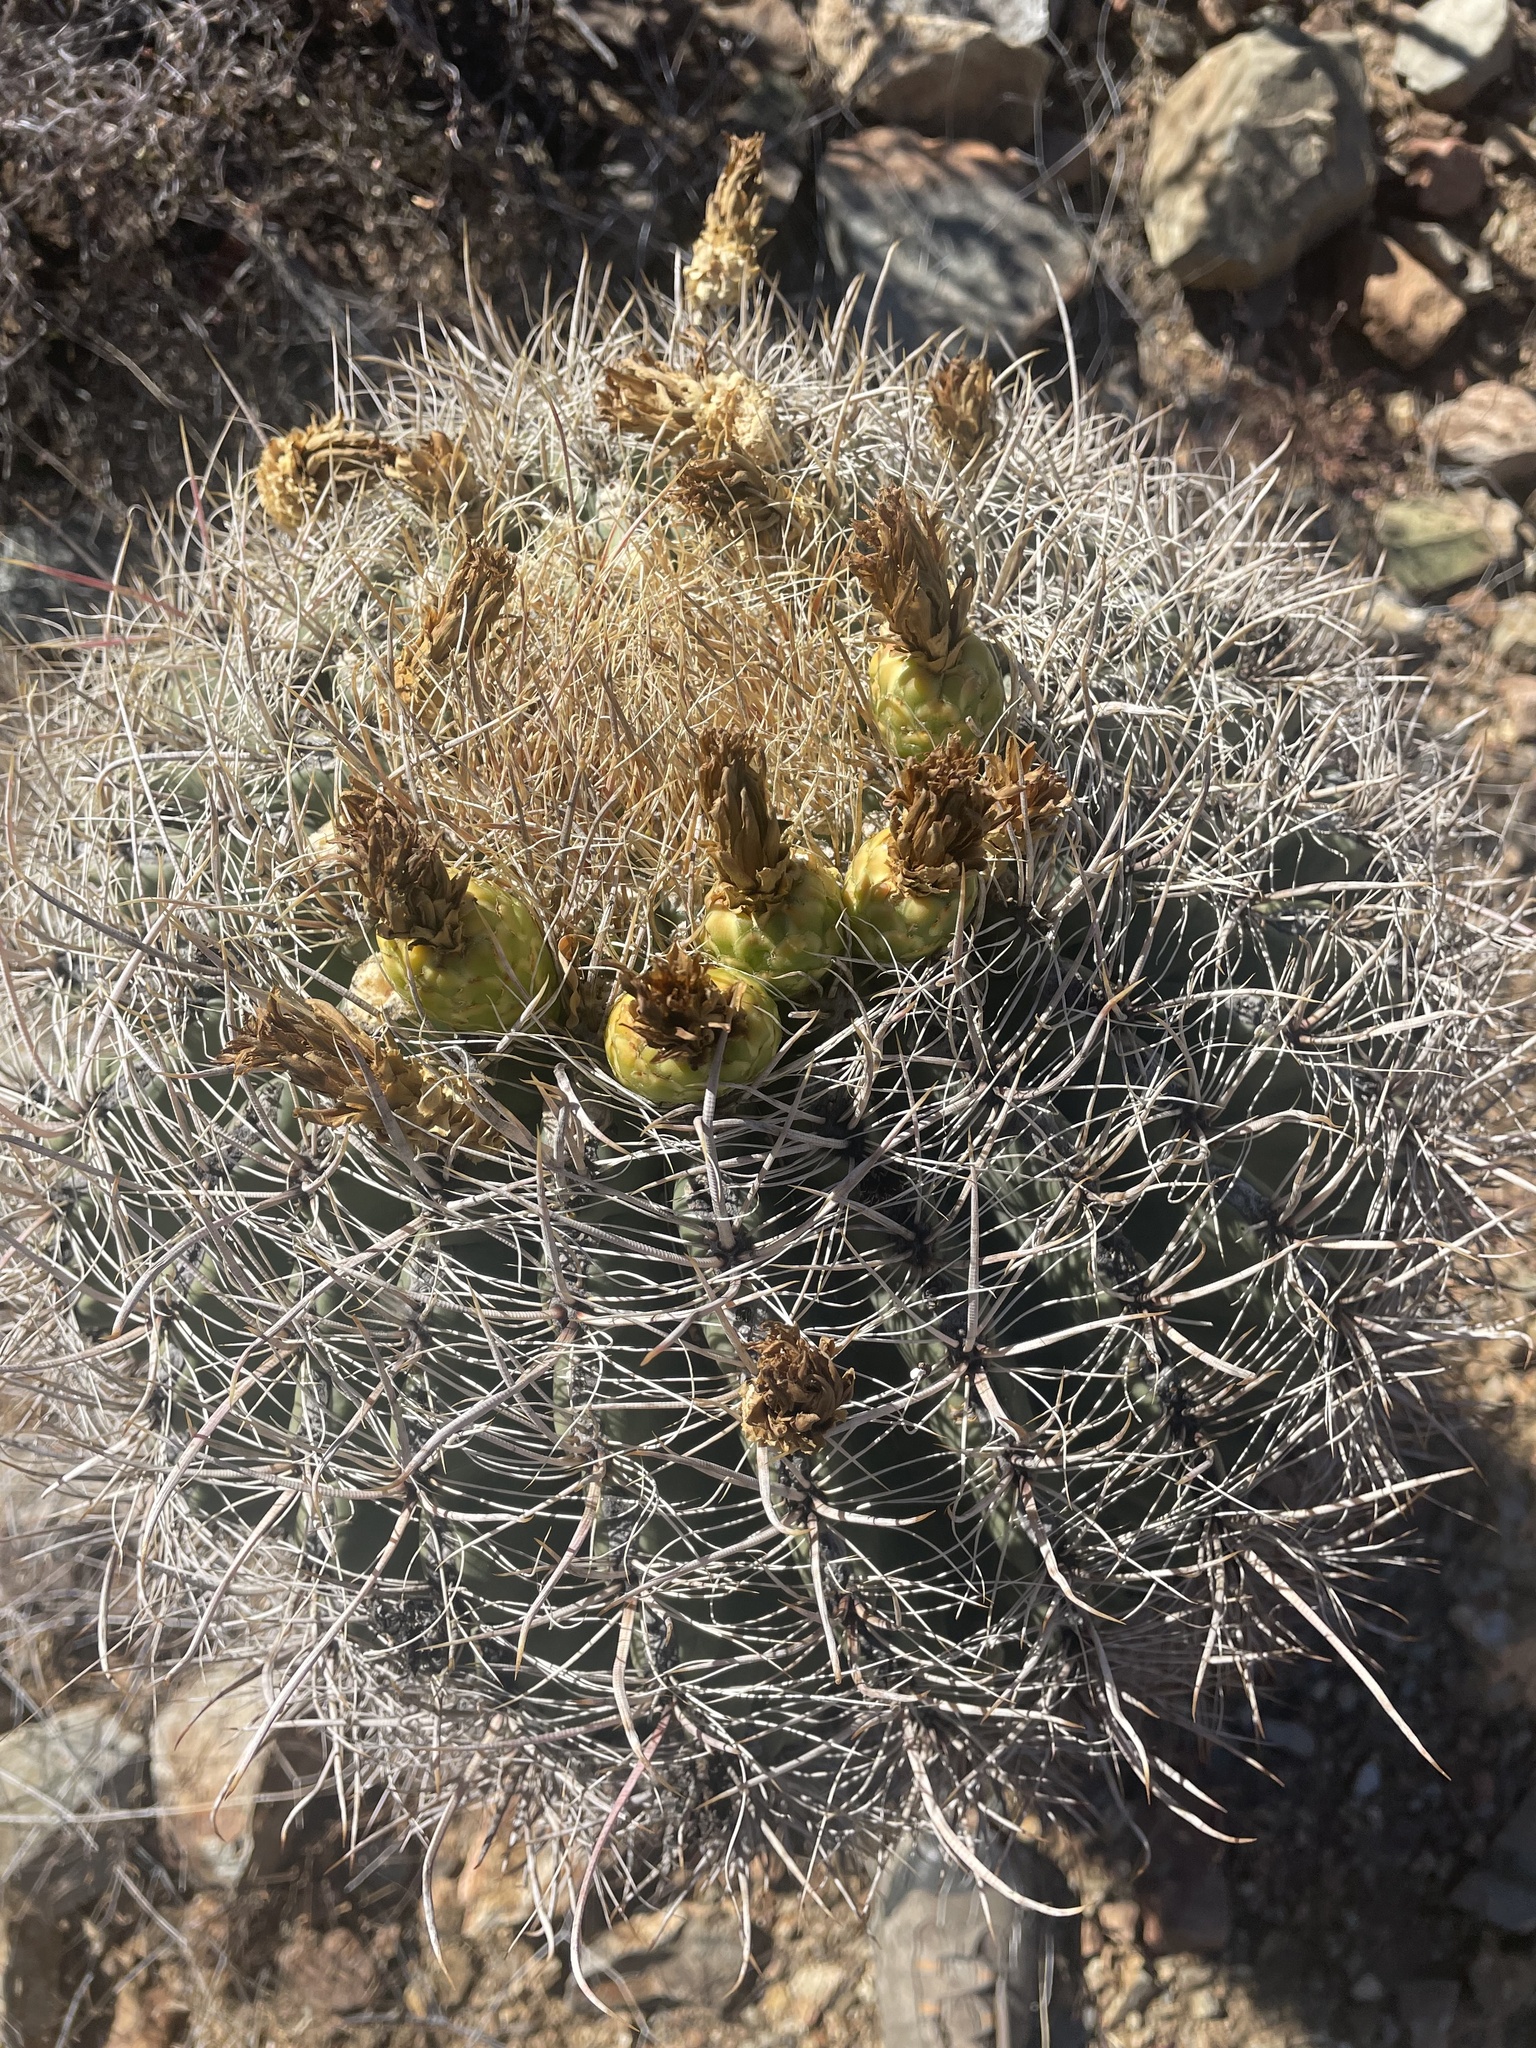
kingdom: Plantae
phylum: Tracheophyta
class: Magnoliopsida
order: Caryophyllales
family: Cactaceae
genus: Ferocactus
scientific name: Ferocactus wislizeni
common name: Candy barrel cactus
